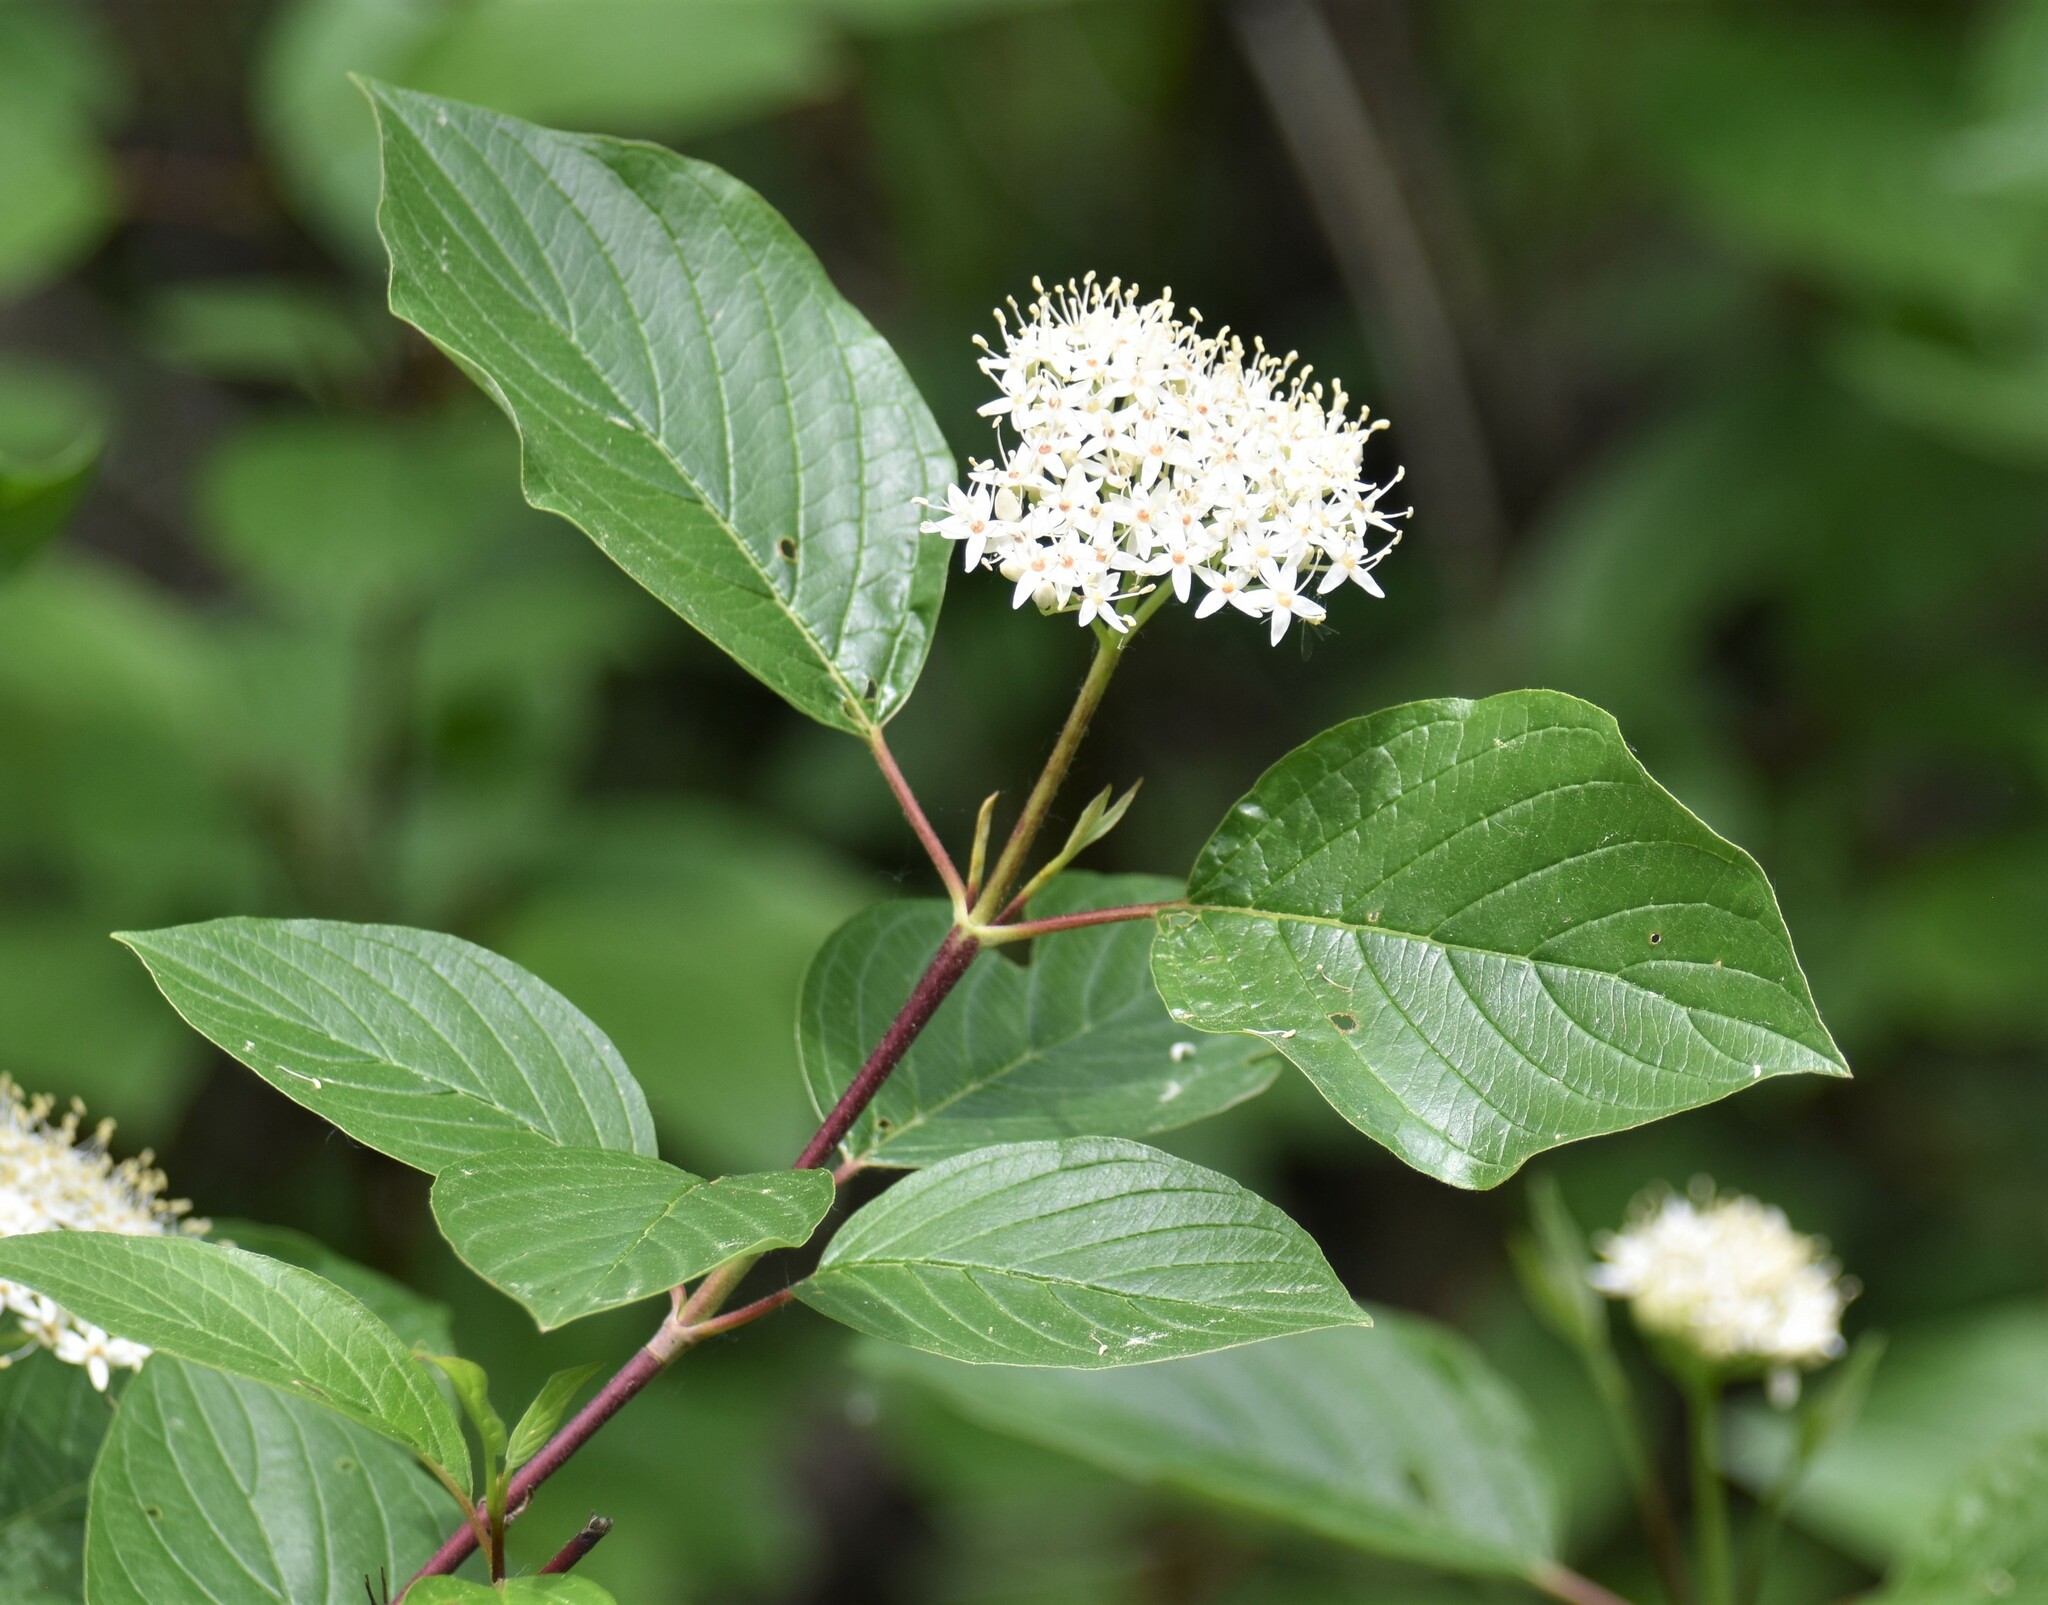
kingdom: Plantae
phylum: Tracheophyta
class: Magnoliopsida
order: Cornales
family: Cornaceae
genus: Cornus
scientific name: Cornus sericea
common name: Red-osier dogwood
